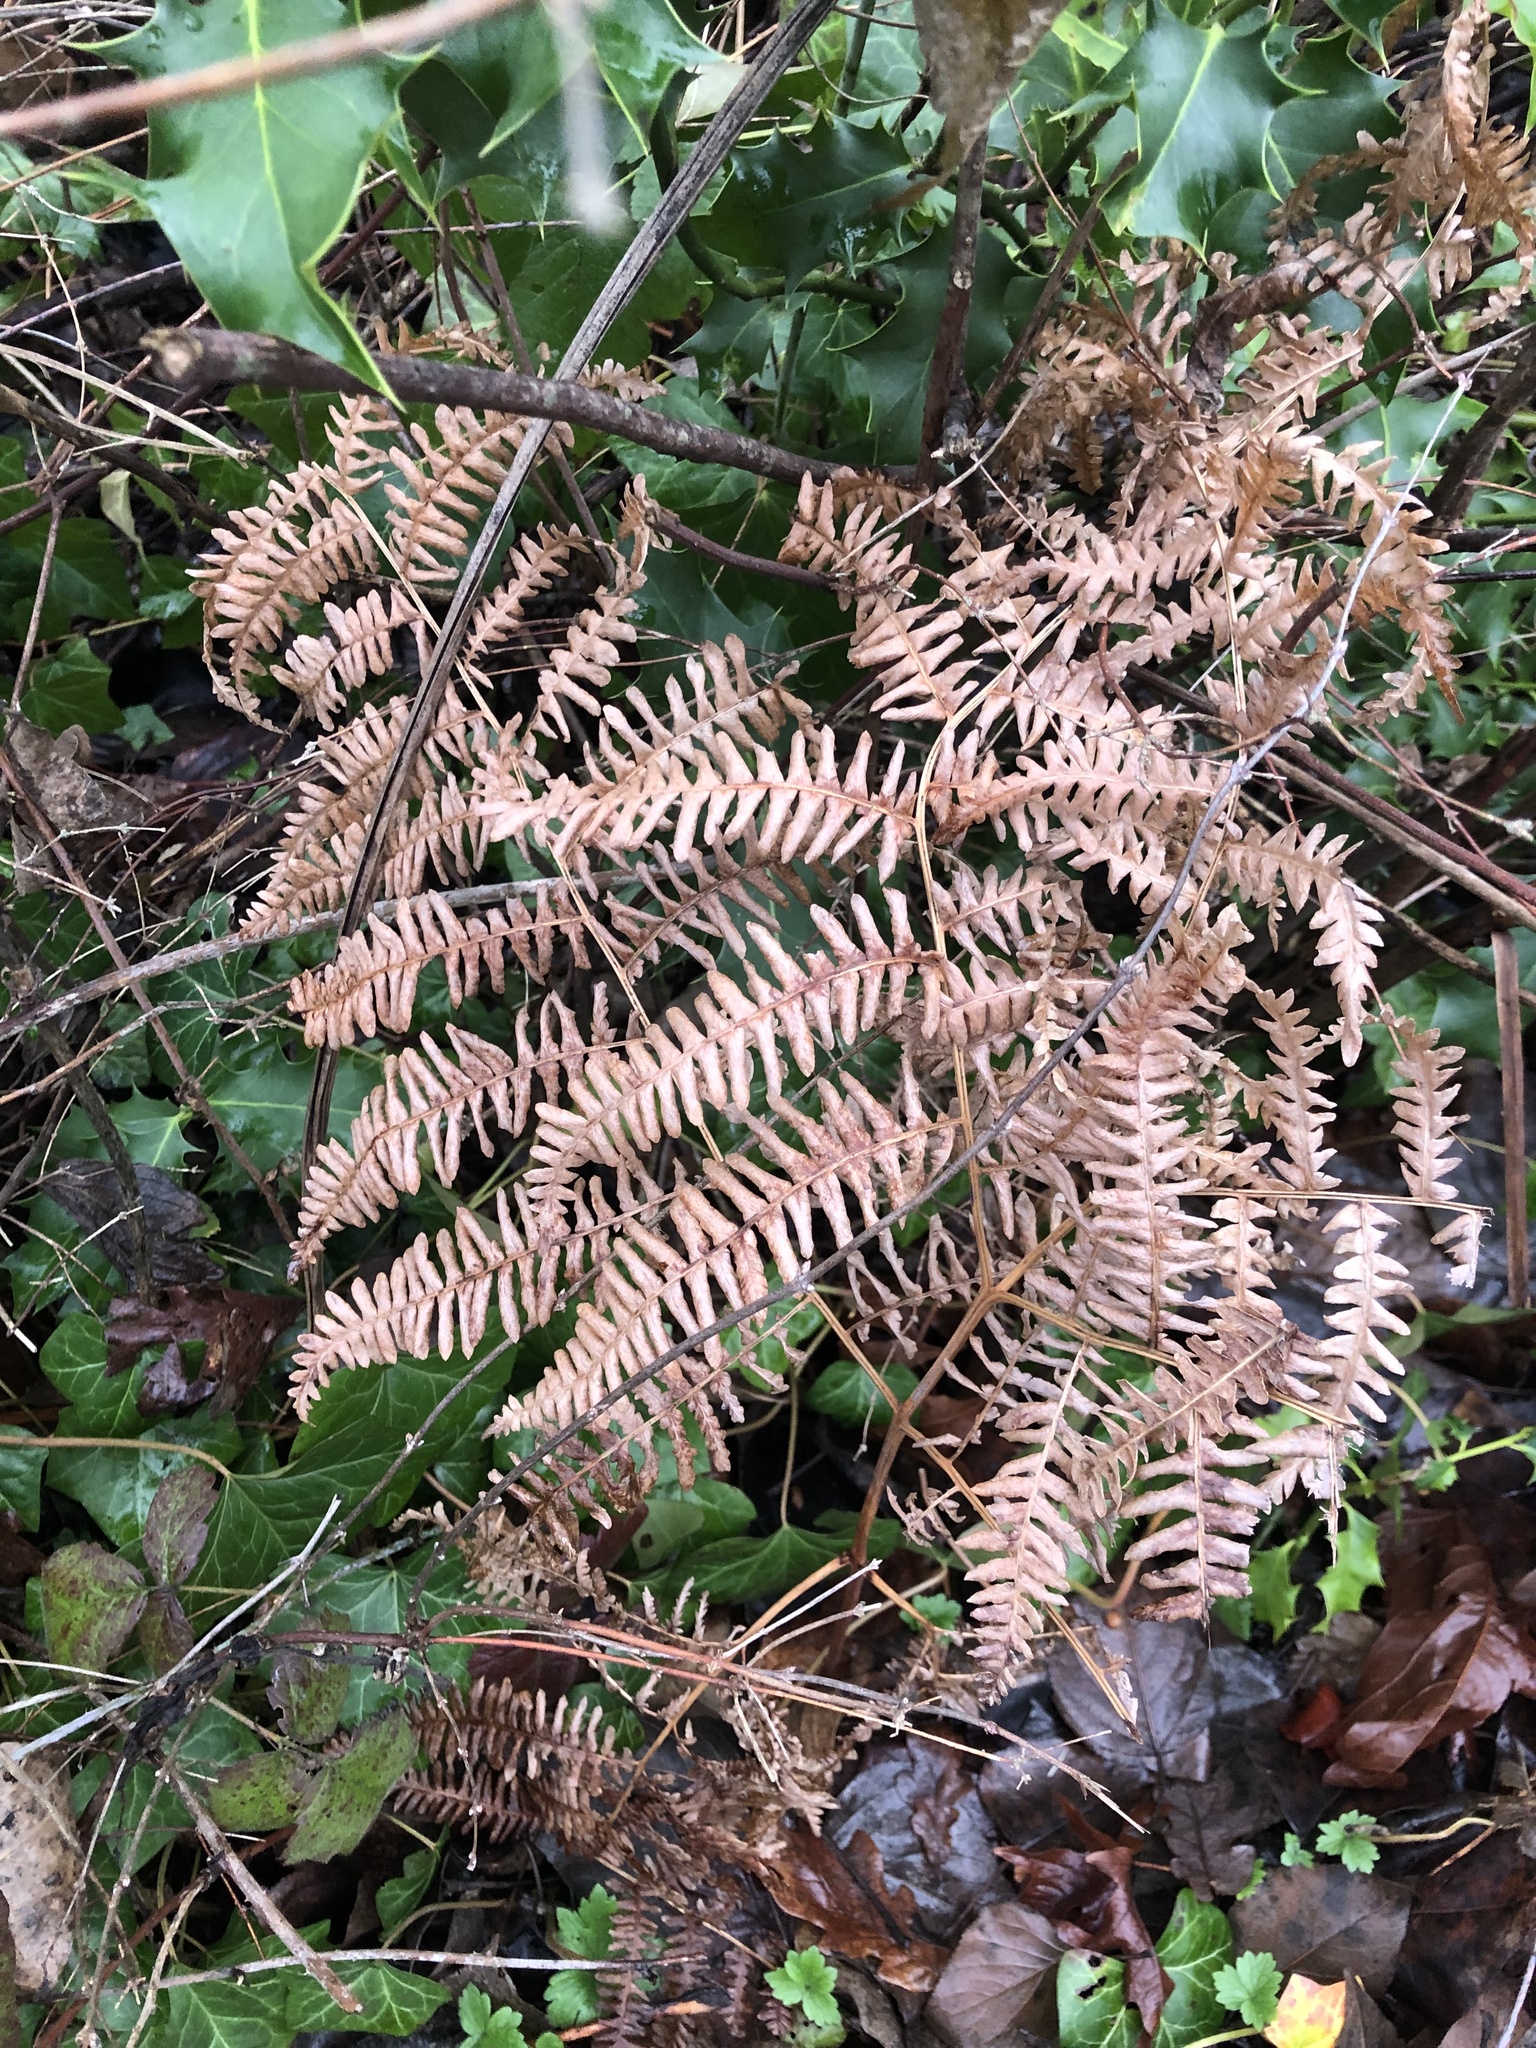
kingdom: Plantae
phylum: Tracheophyta
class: Polypodiopsida
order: Polypodiales
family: Dennstaedtiaceae
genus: Pteridium
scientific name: Pteridium aquilinum
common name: Bracken
